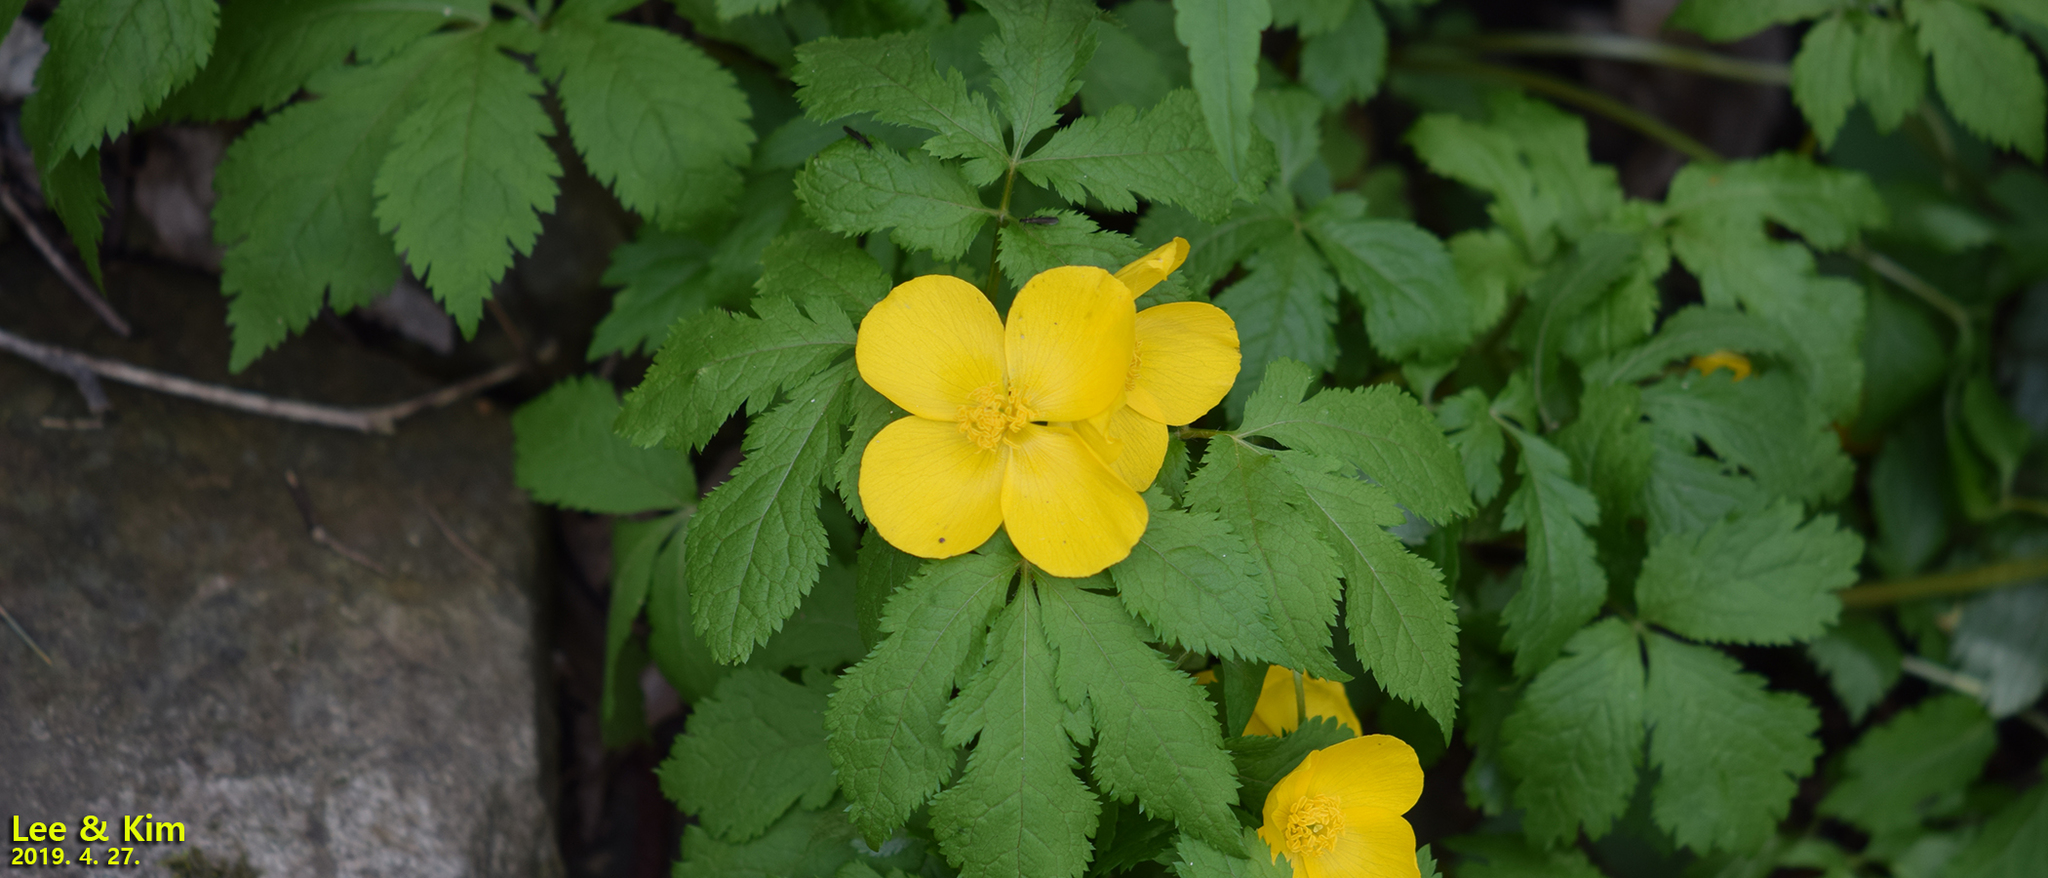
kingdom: Plantae
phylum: Tracheophyta
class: Magnoliopsida
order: Ranunculales
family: Papaveraceae
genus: Hylomecon
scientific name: Hylomecon vernalis
